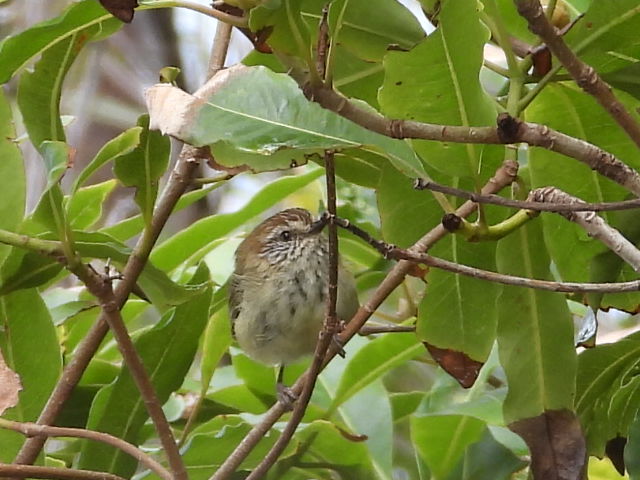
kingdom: Animalia
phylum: Chordata
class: Aves
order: Passeriformes
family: Acanthizidae
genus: Acanthiza
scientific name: Acanthiza lineata
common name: Striated thornbill
